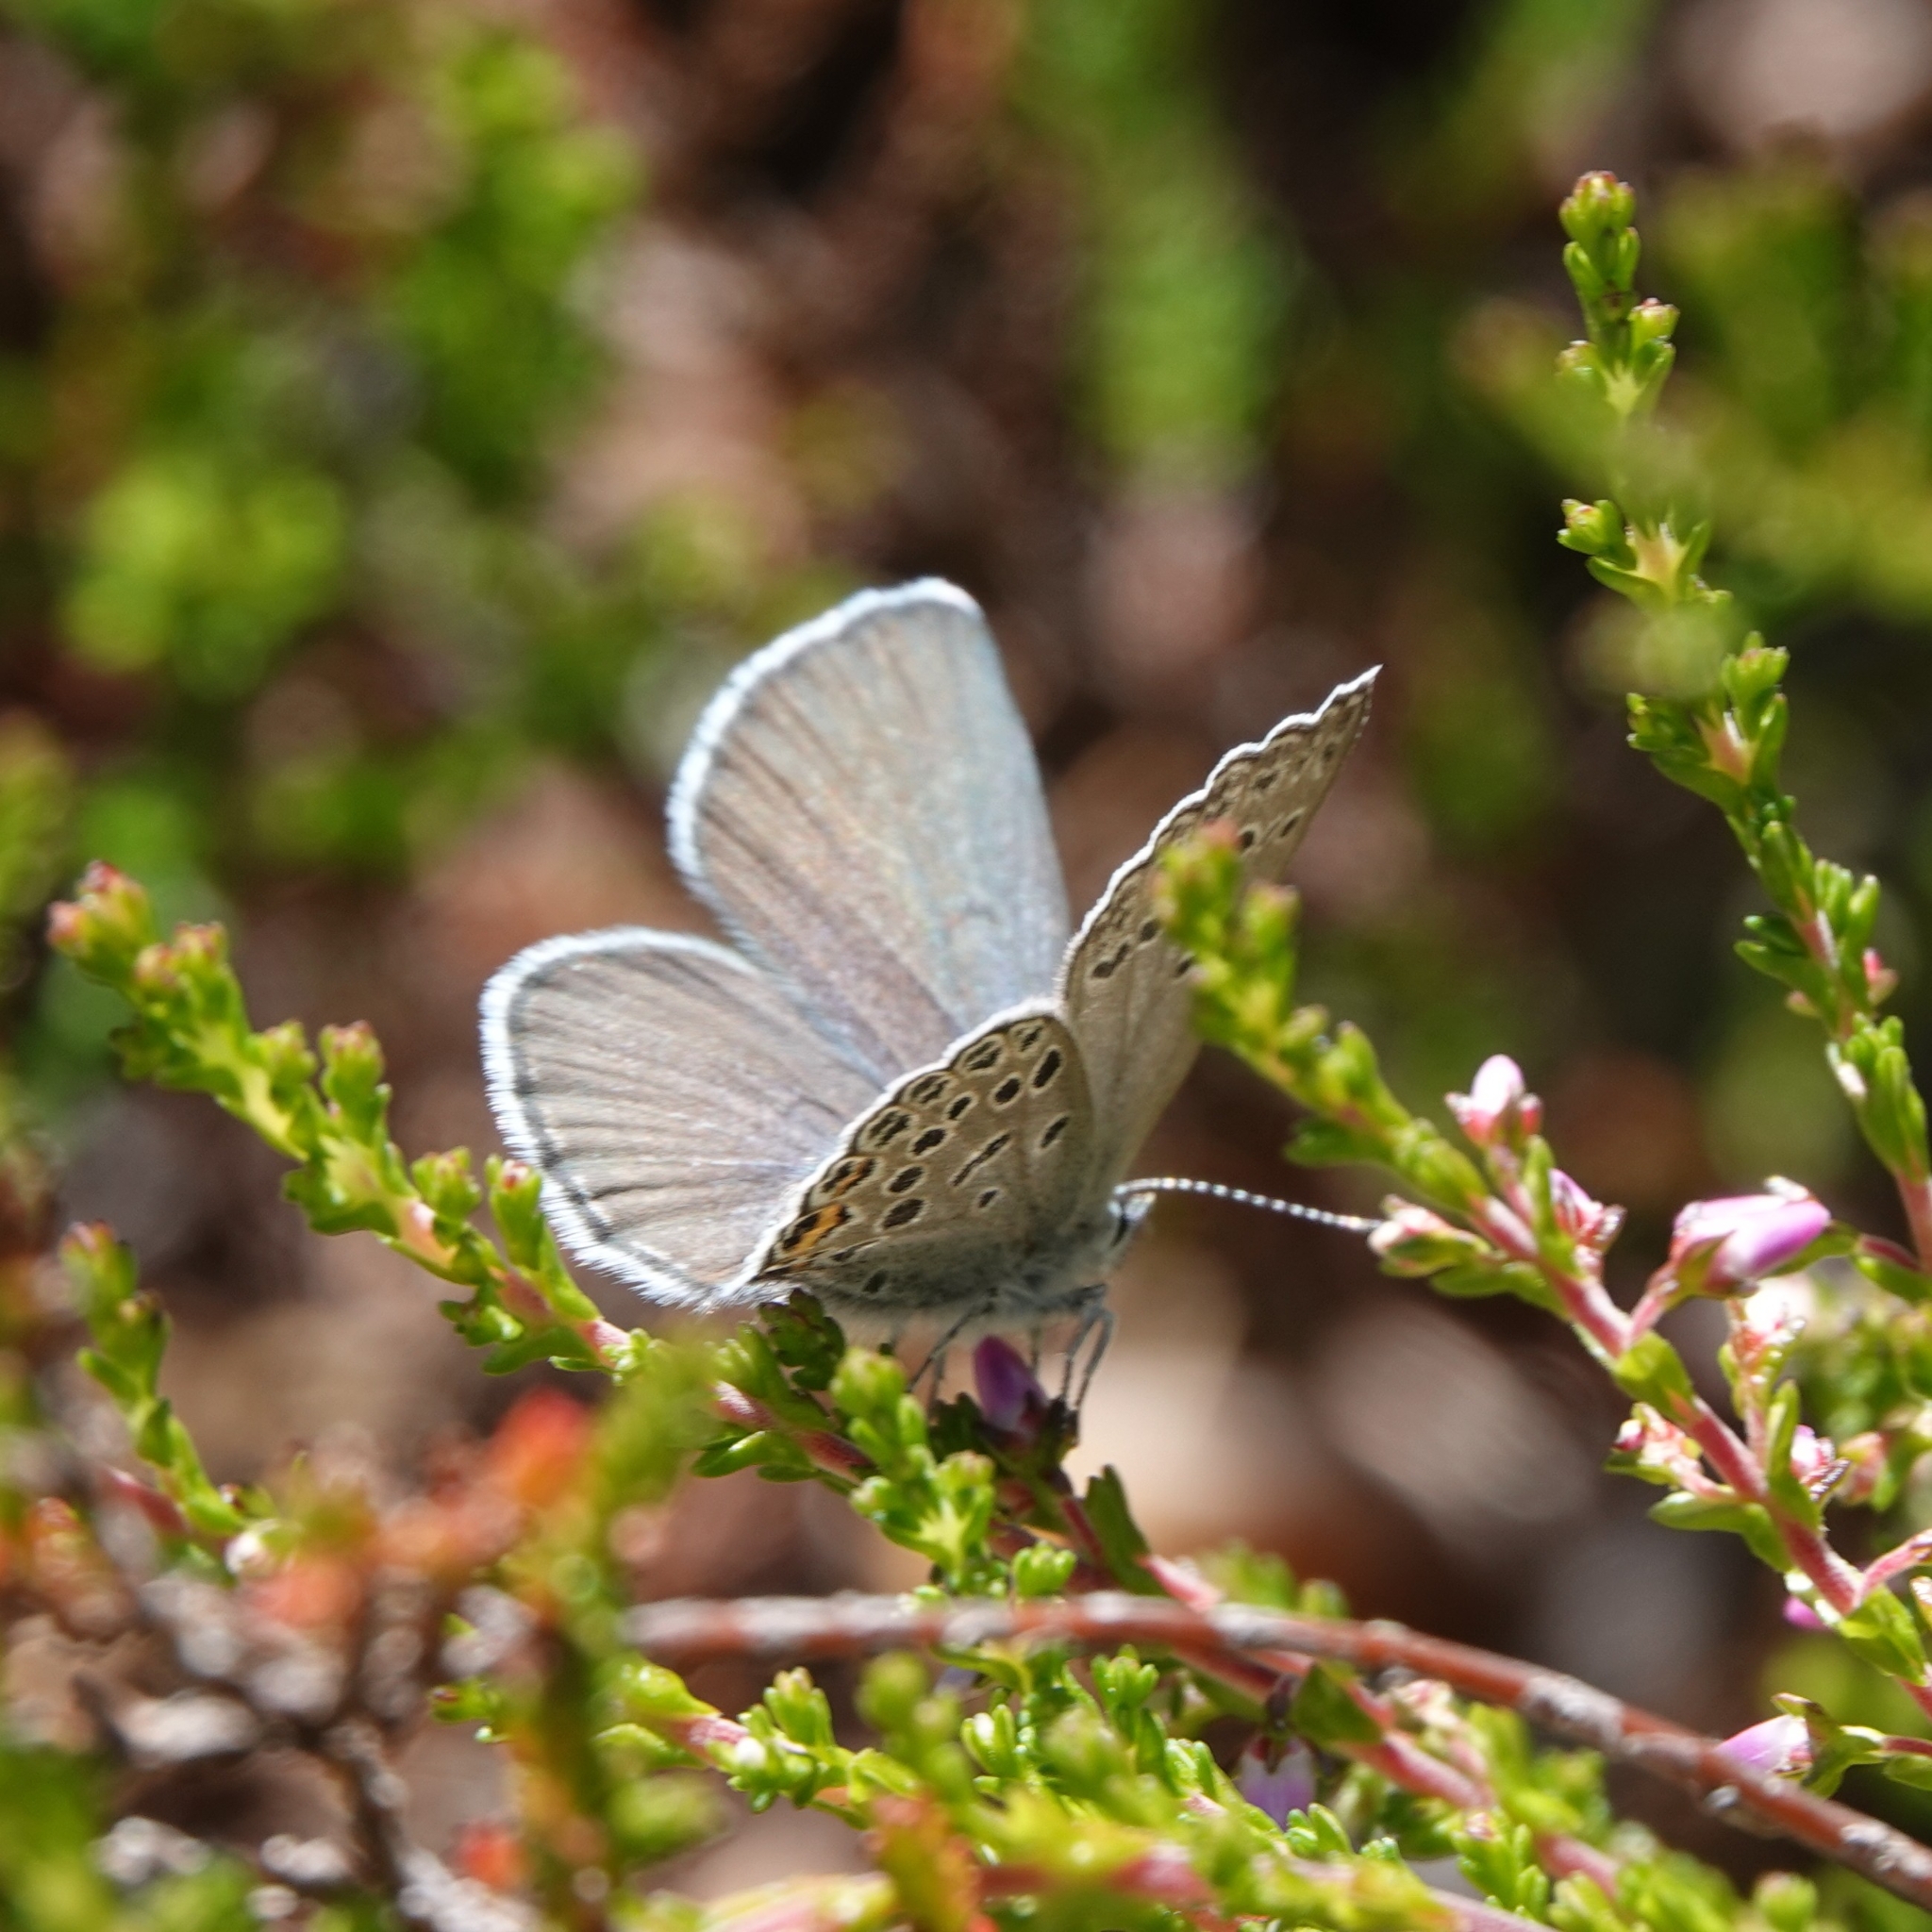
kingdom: Animalia
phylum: Arthropoda
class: Insecta
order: Lepidoptera
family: Lycaenidae
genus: Vacciniina
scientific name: Vacciniina optilete
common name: Cranberry blue
